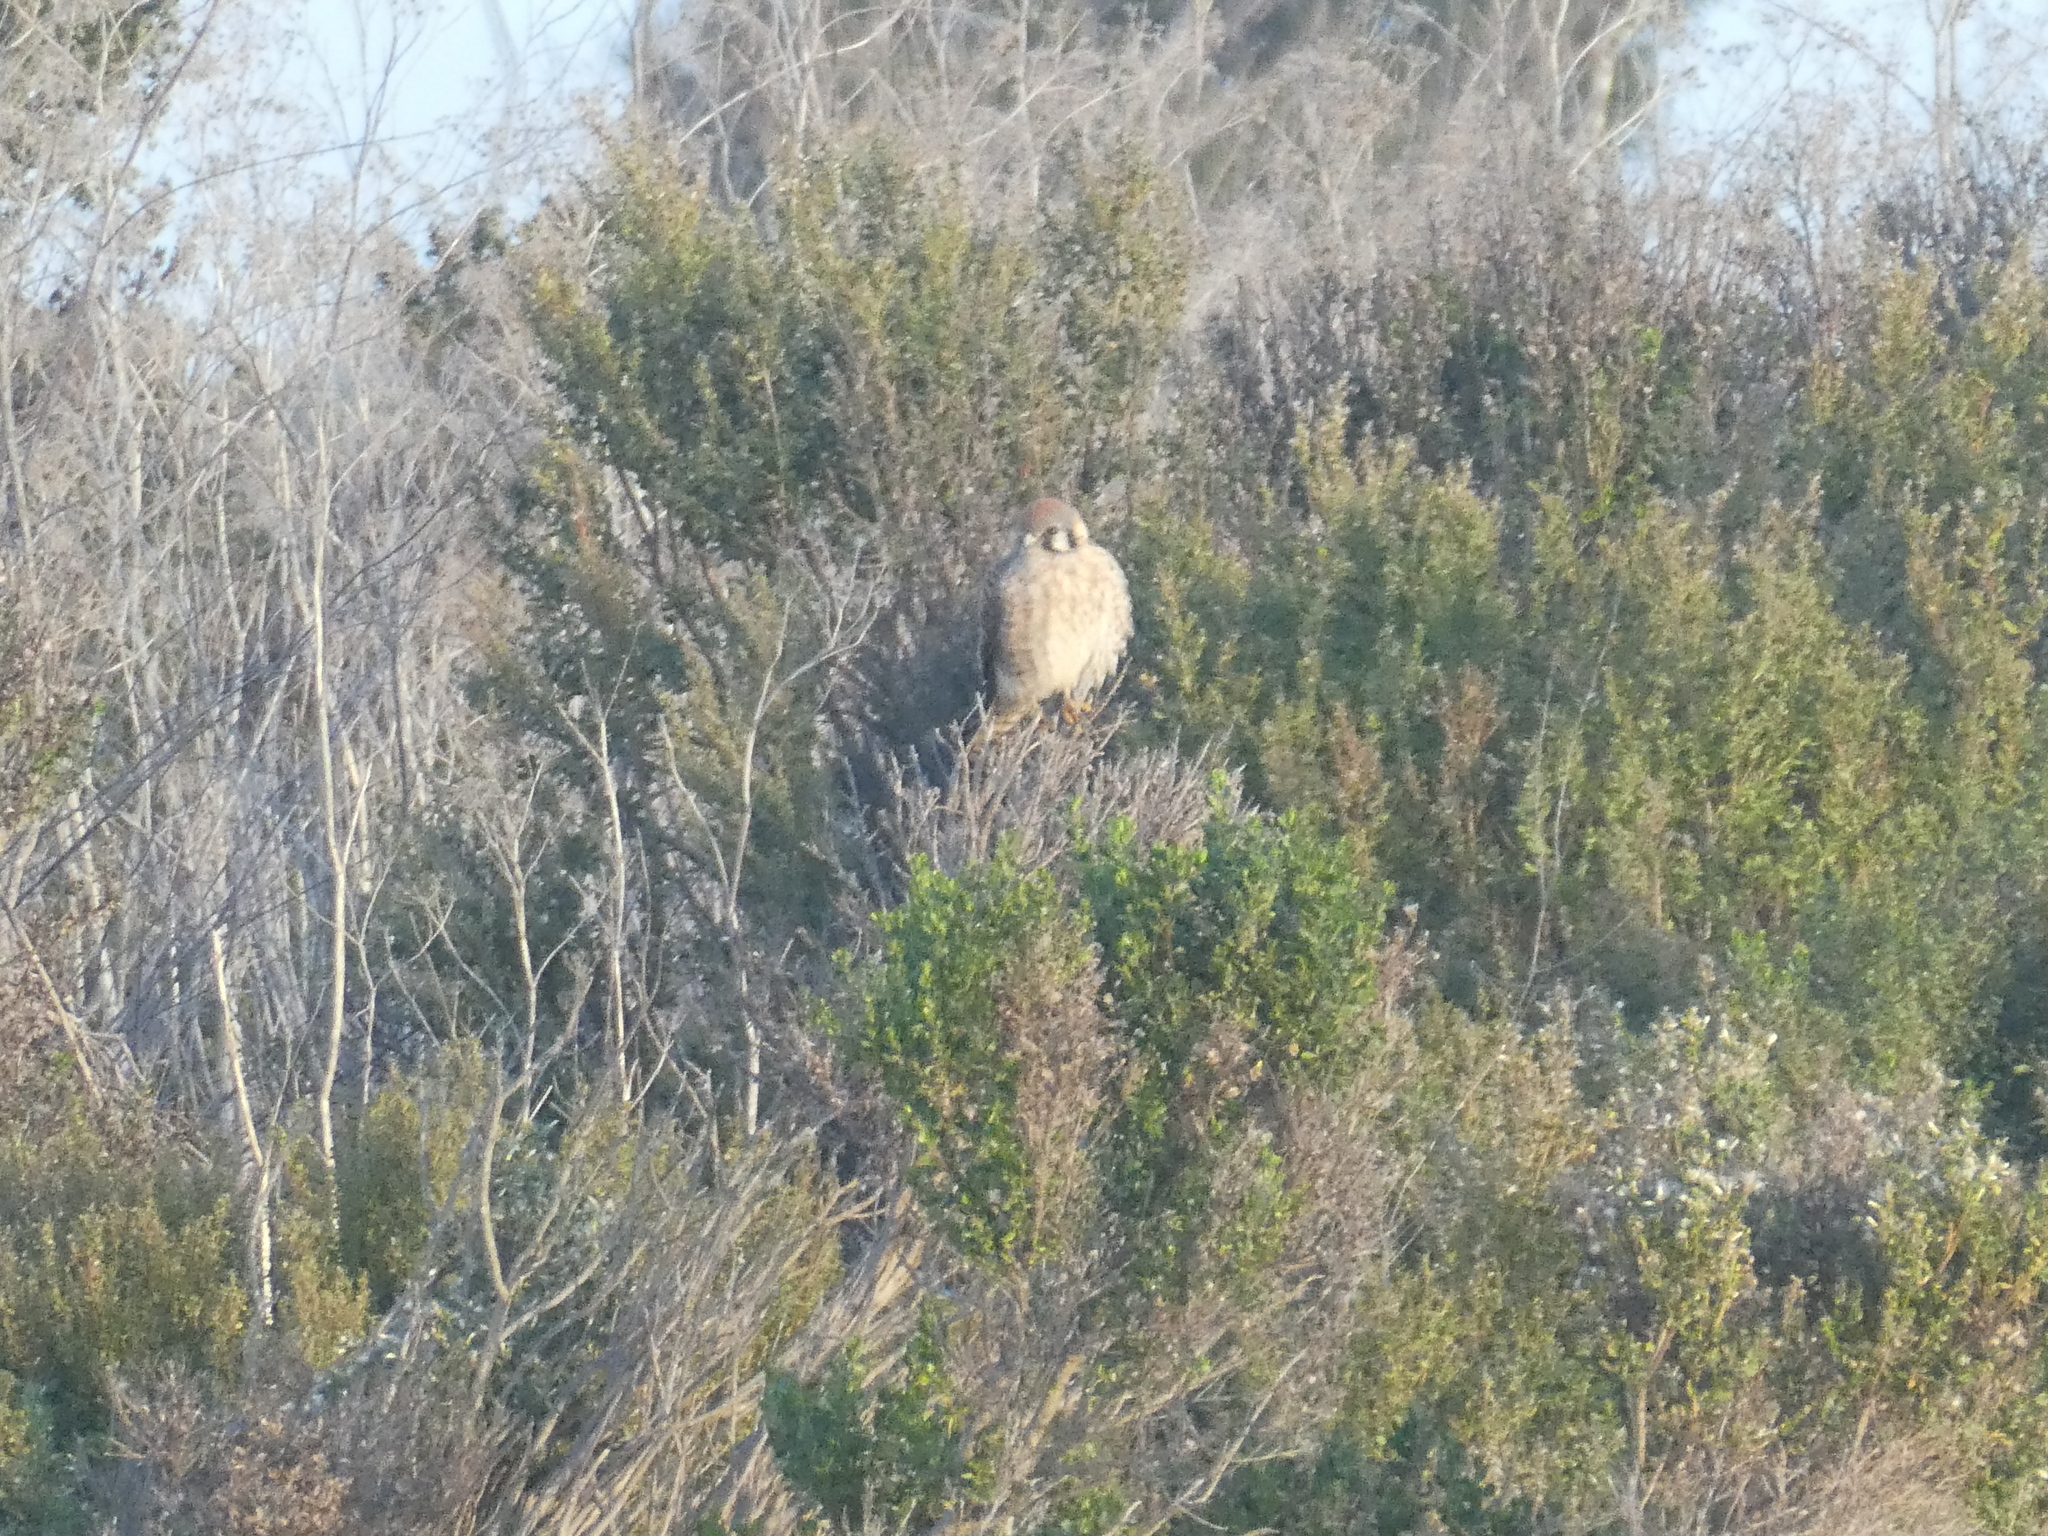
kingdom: Animalia
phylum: Chordata
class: Aves
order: Falconiformes
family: Falconidae
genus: Falco
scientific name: Falco sparverius
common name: American kestrel
